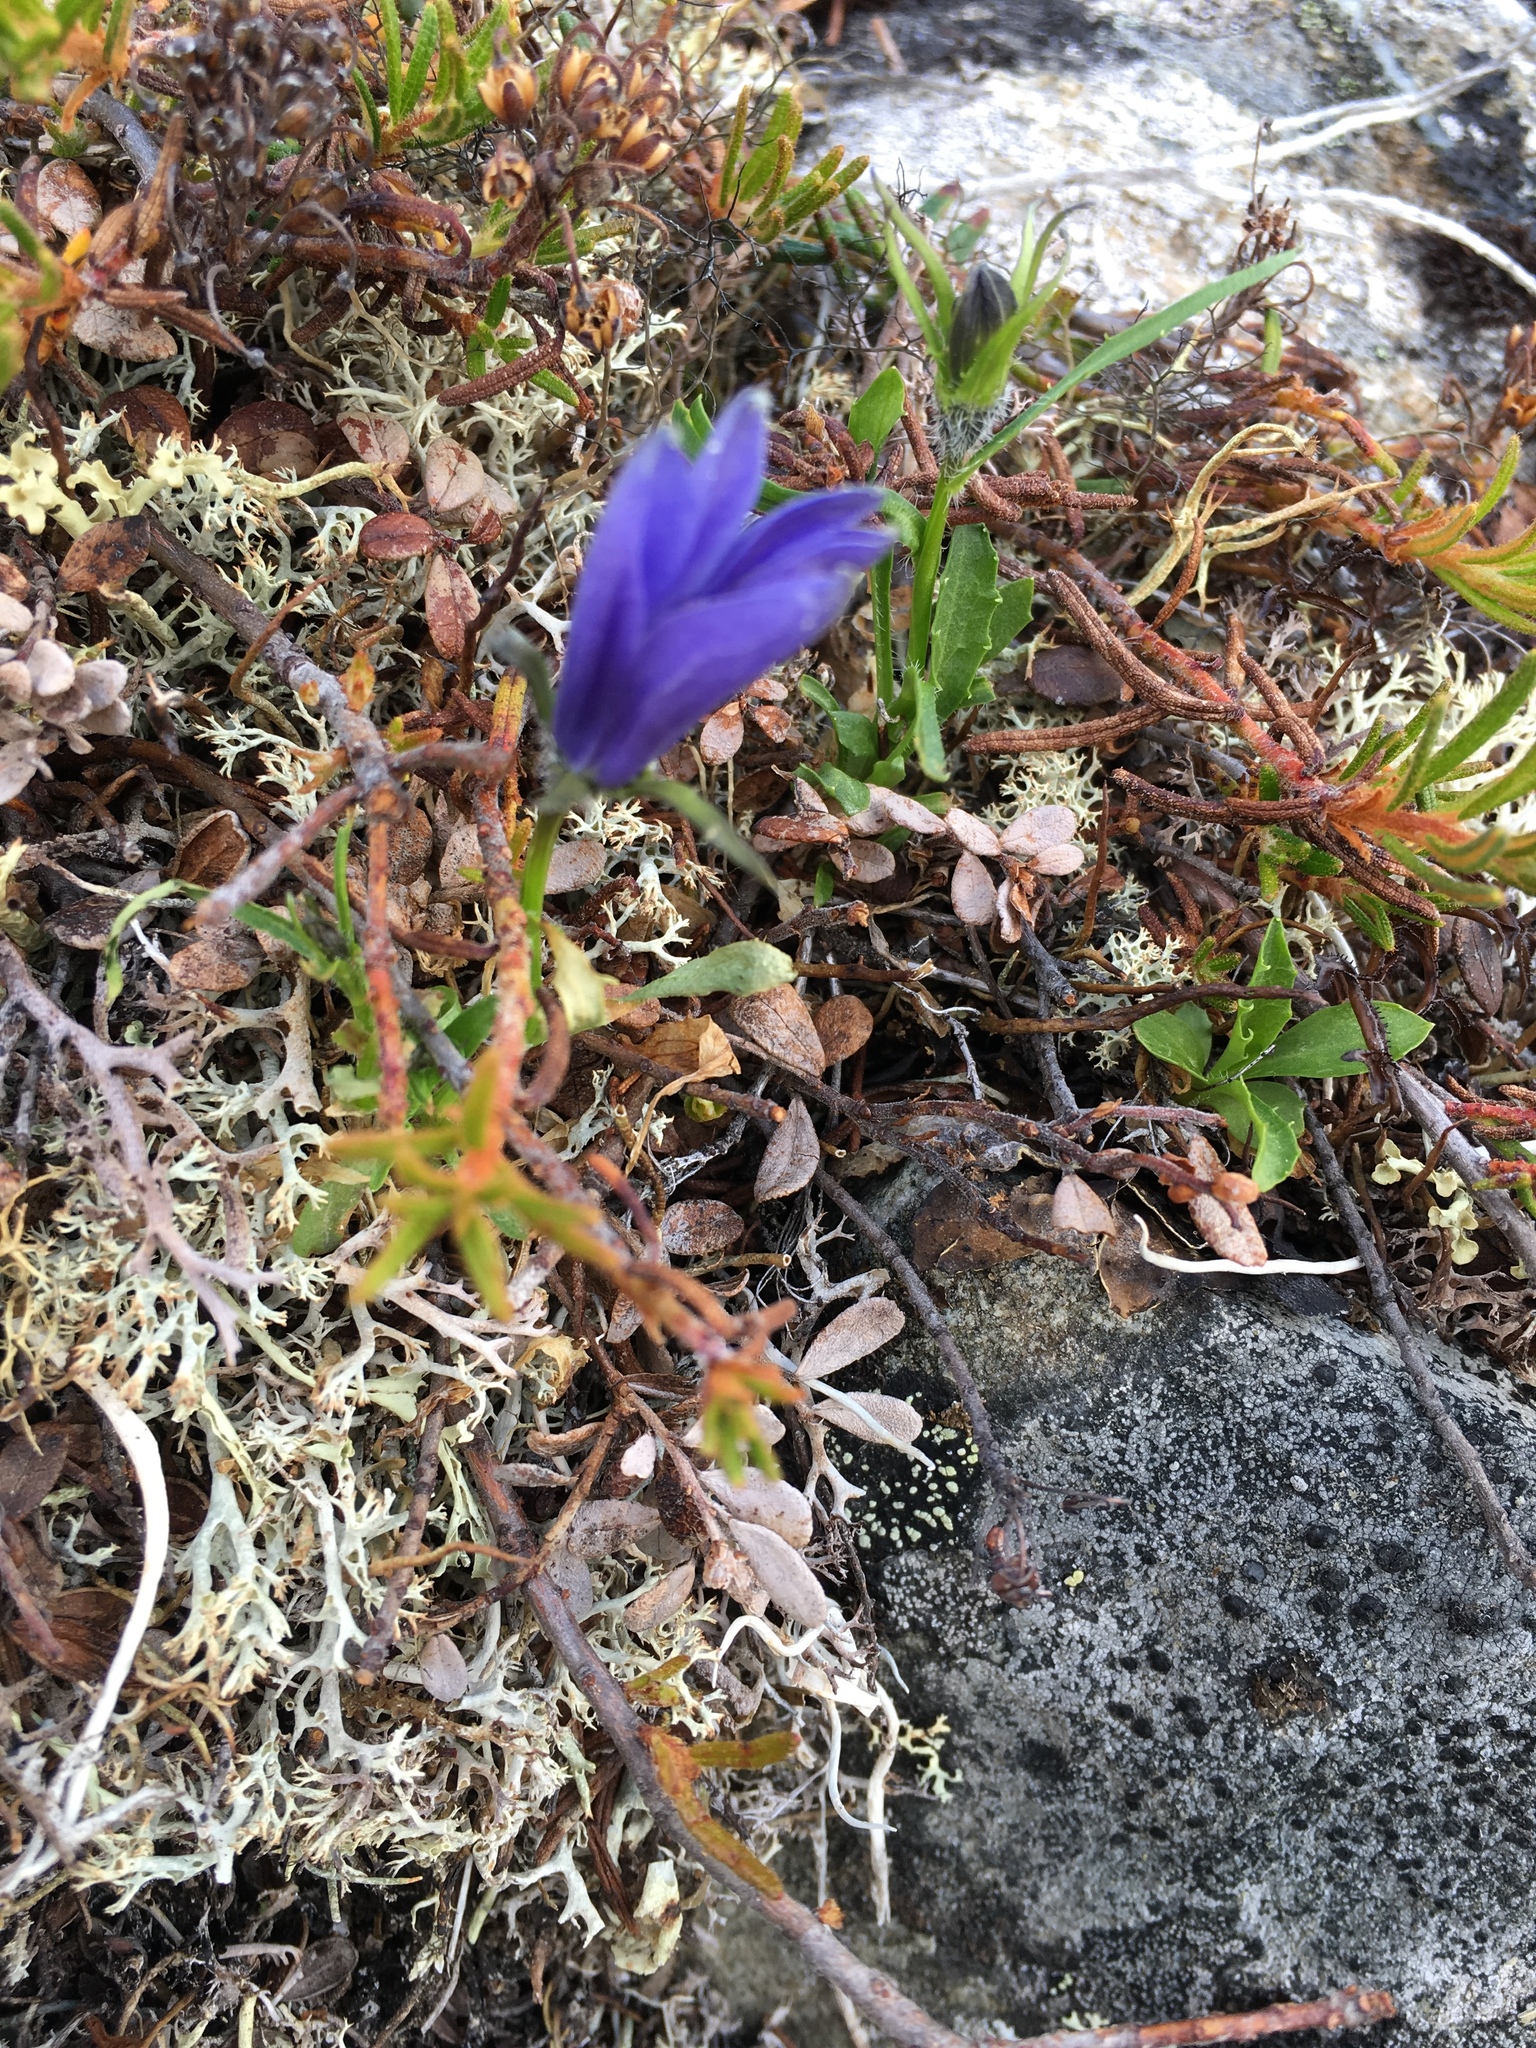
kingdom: Plantae
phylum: Tracheophyta
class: Magnoliopsida
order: Asterales
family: Campanulaceae
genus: Campanula
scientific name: Campanula lasiocarpa
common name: Mountain harebell
